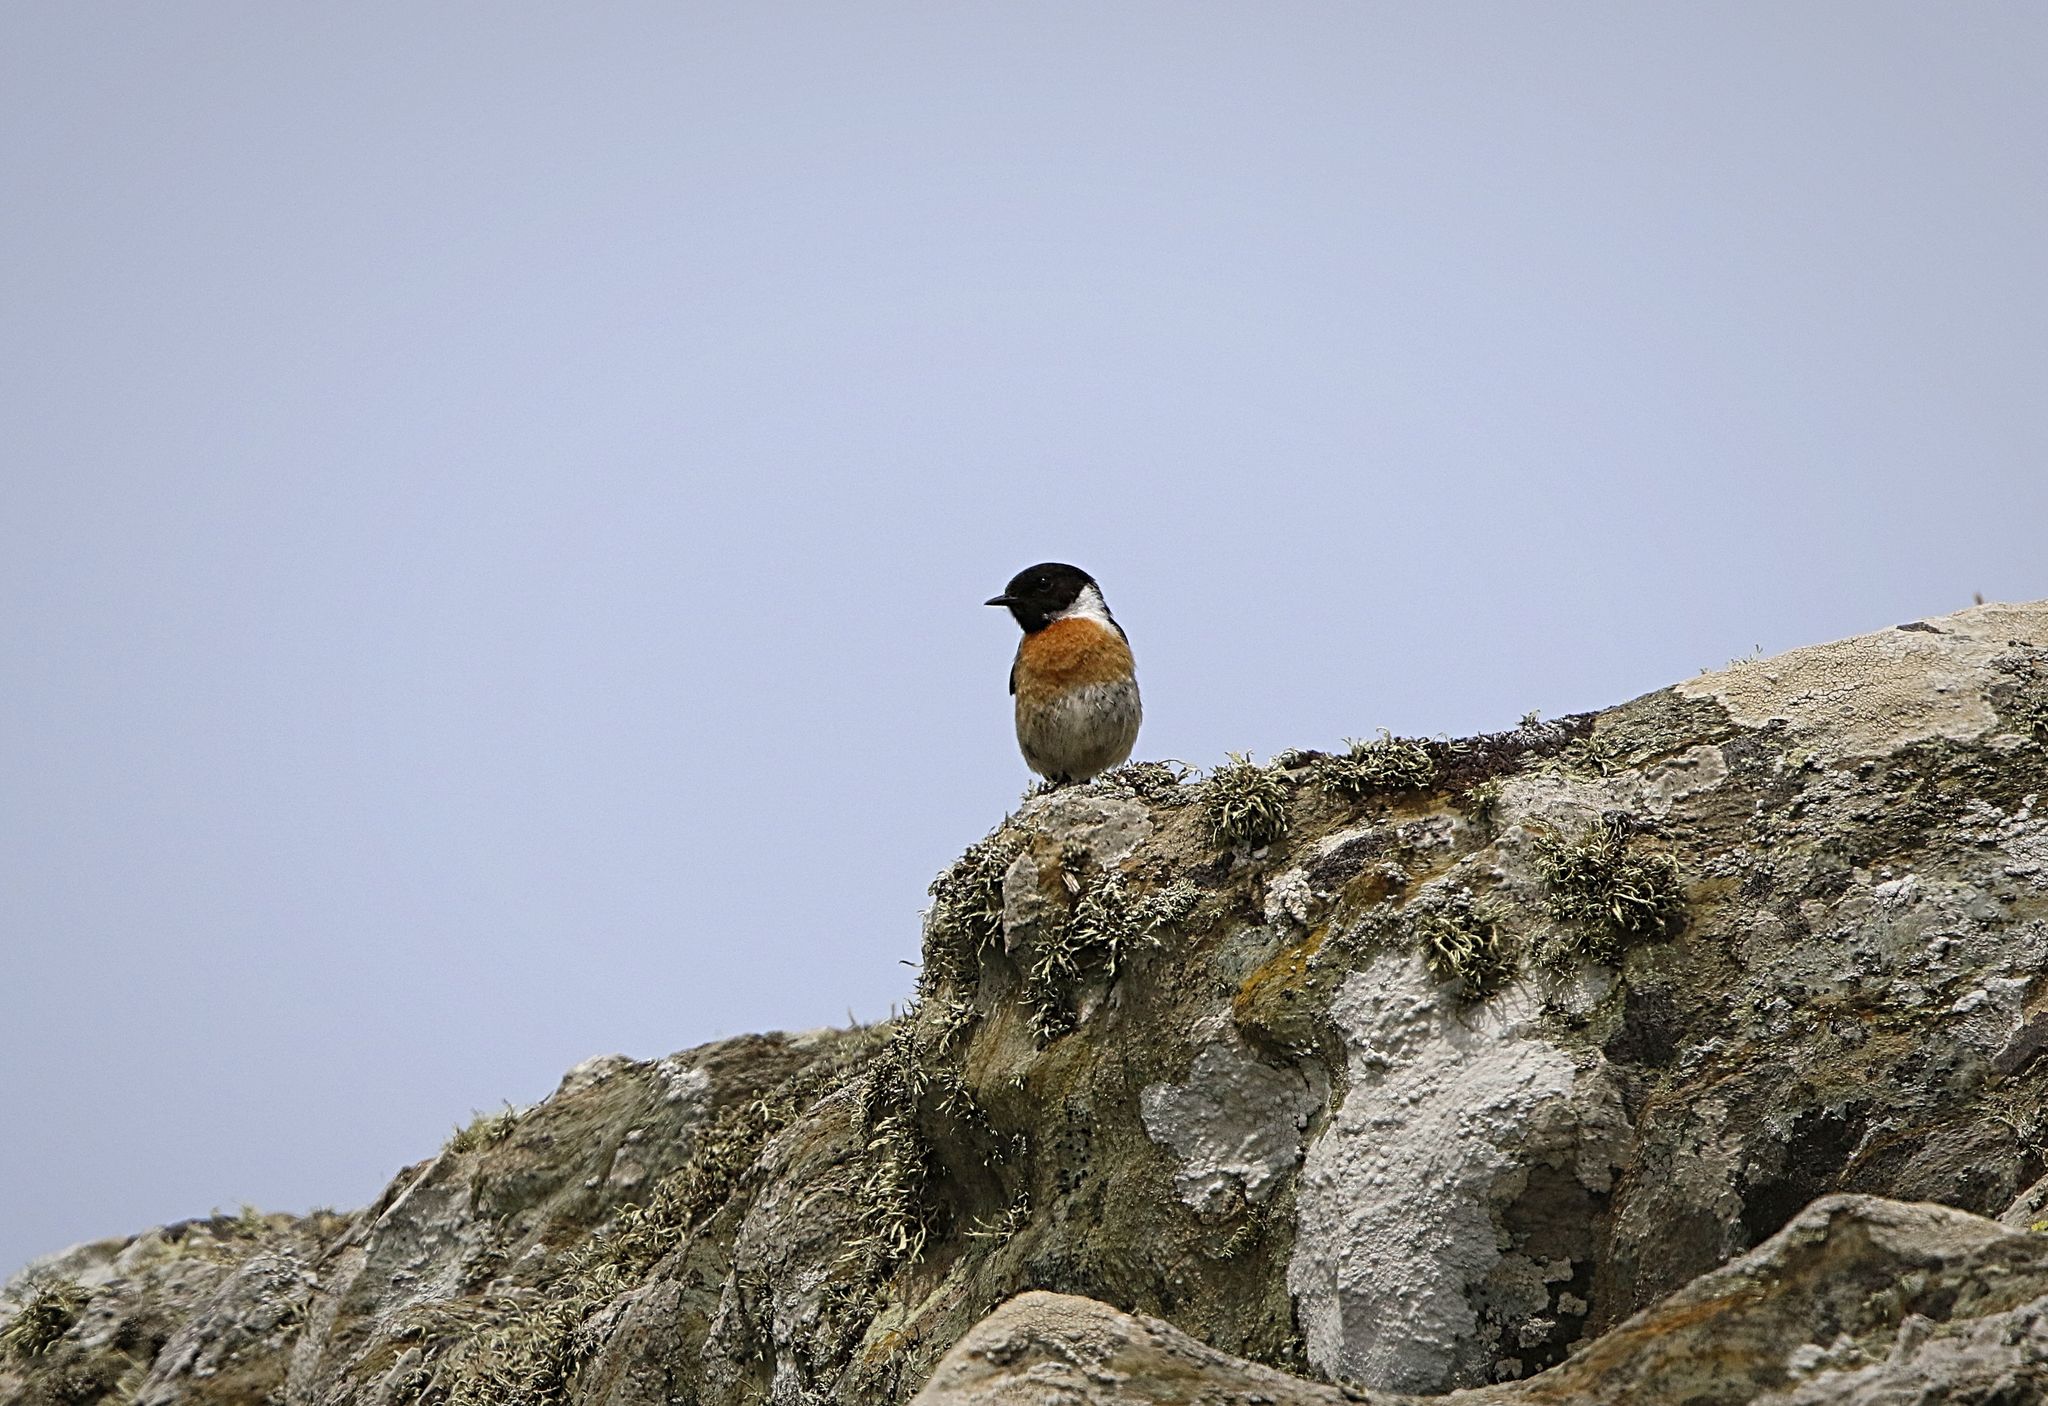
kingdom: Animalia
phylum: Chordata
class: Aves
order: Passeriformes
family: Muscicapidae
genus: Saxicola
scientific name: Saxicola rubicola
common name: European stonechat
